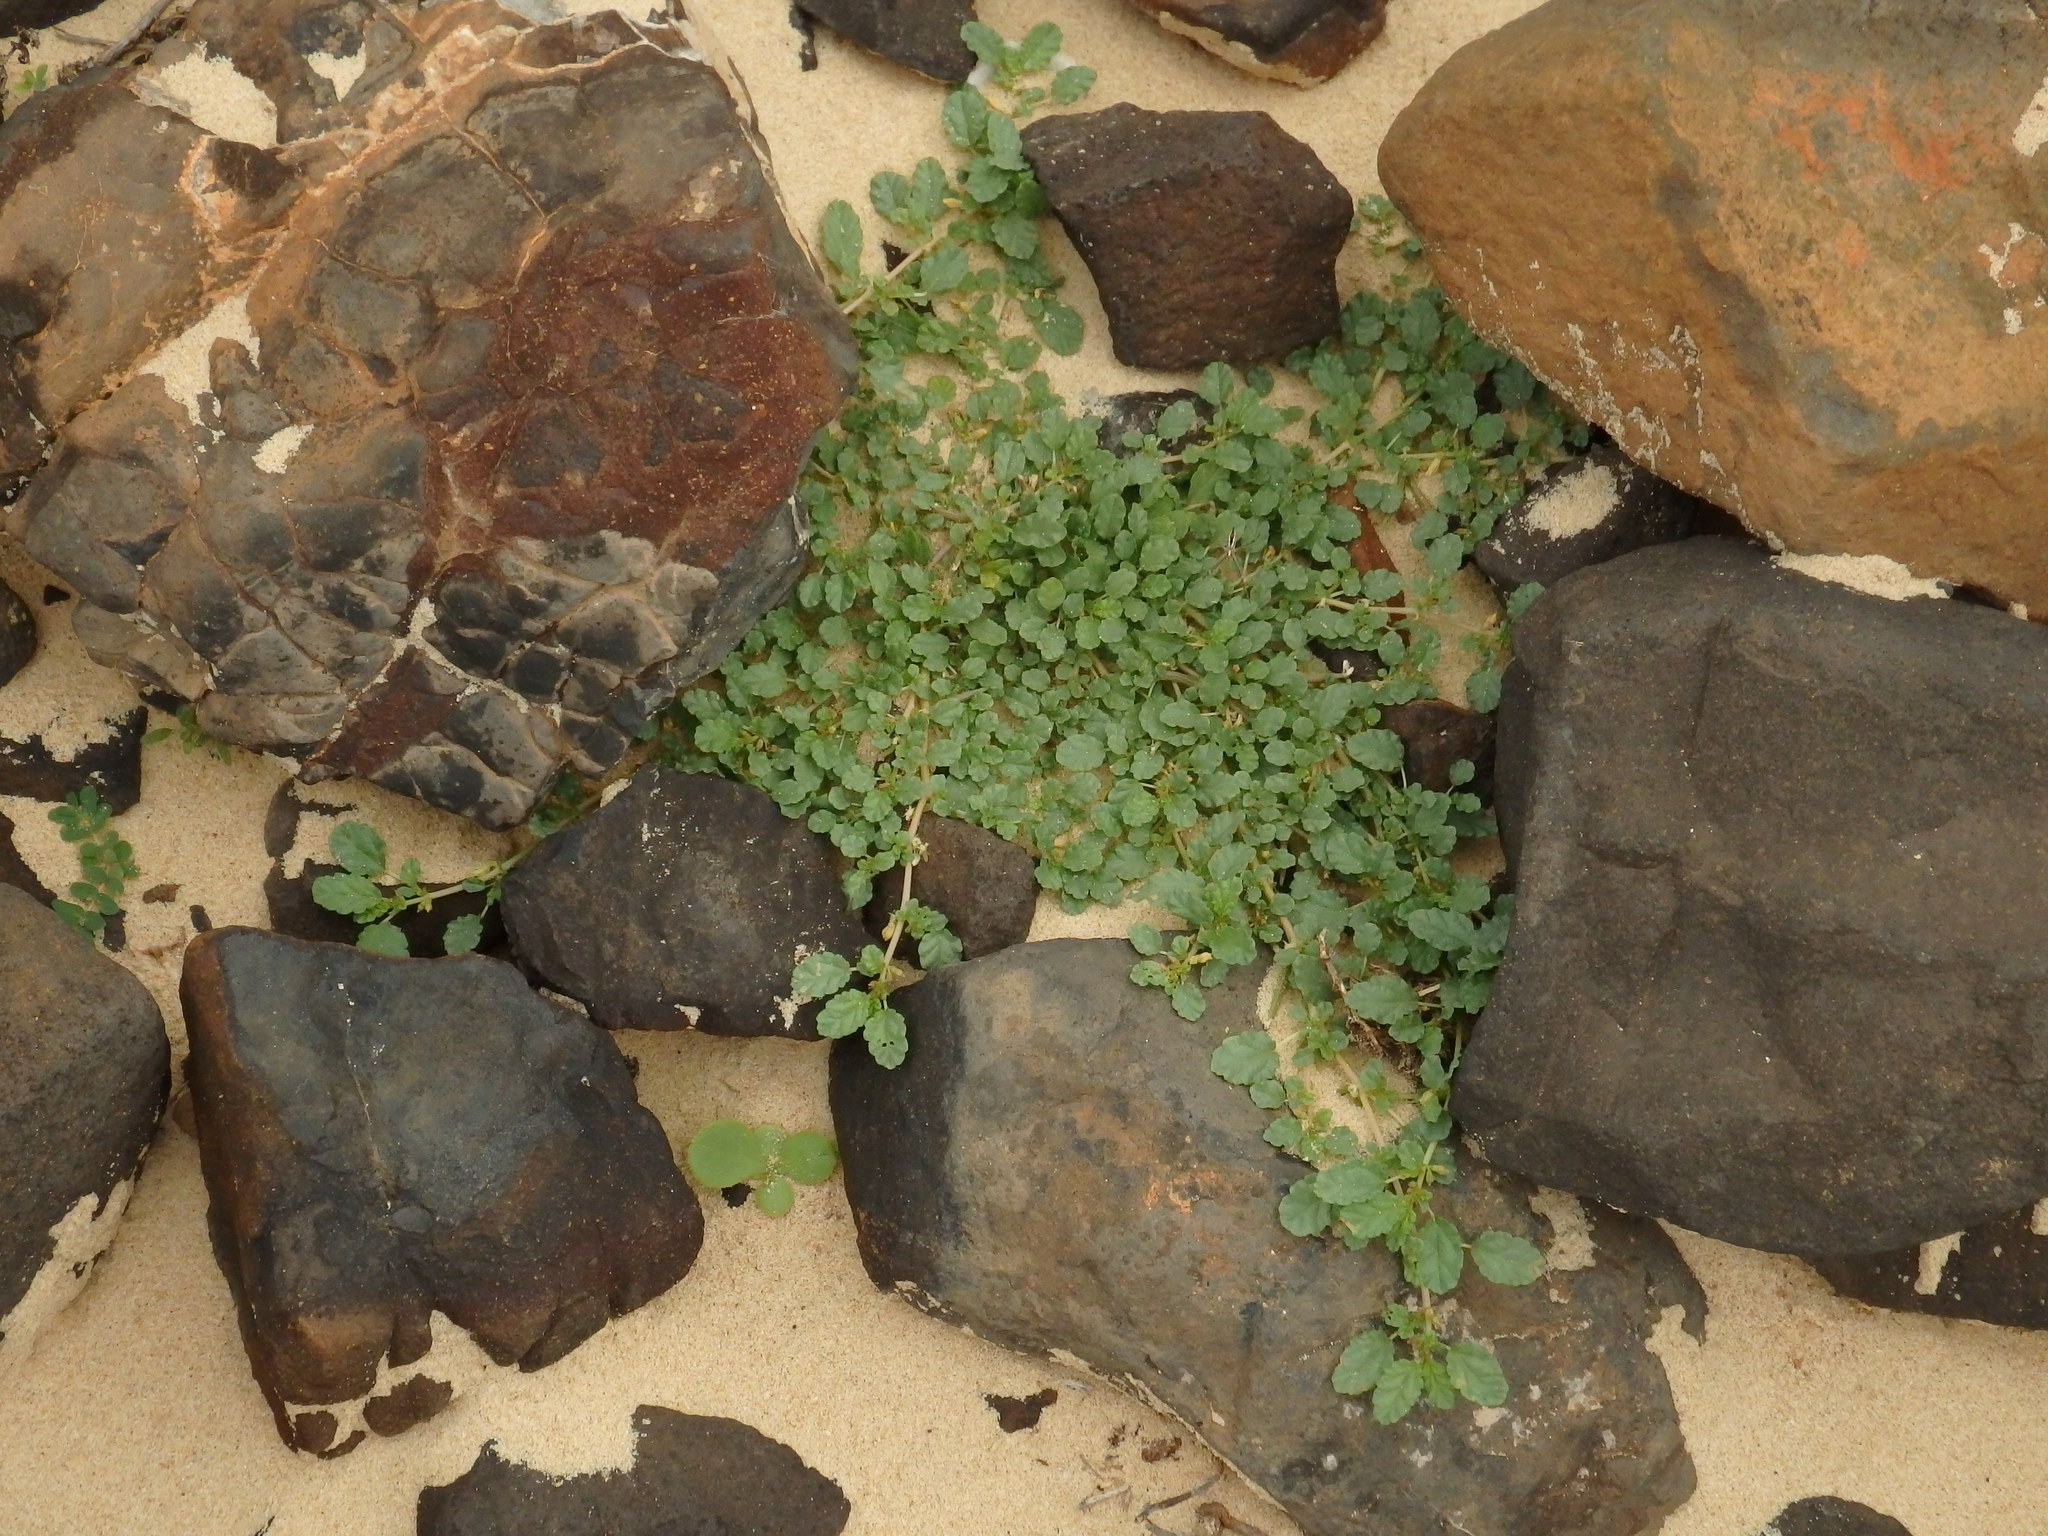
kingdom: Plantae
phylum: Tracheophyta
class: Magnoliopsida
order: Caryophyllales
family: Aizoaceae
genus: Trianthema
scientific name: Trianthema portulacastrum
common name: Desert horsepurslane
